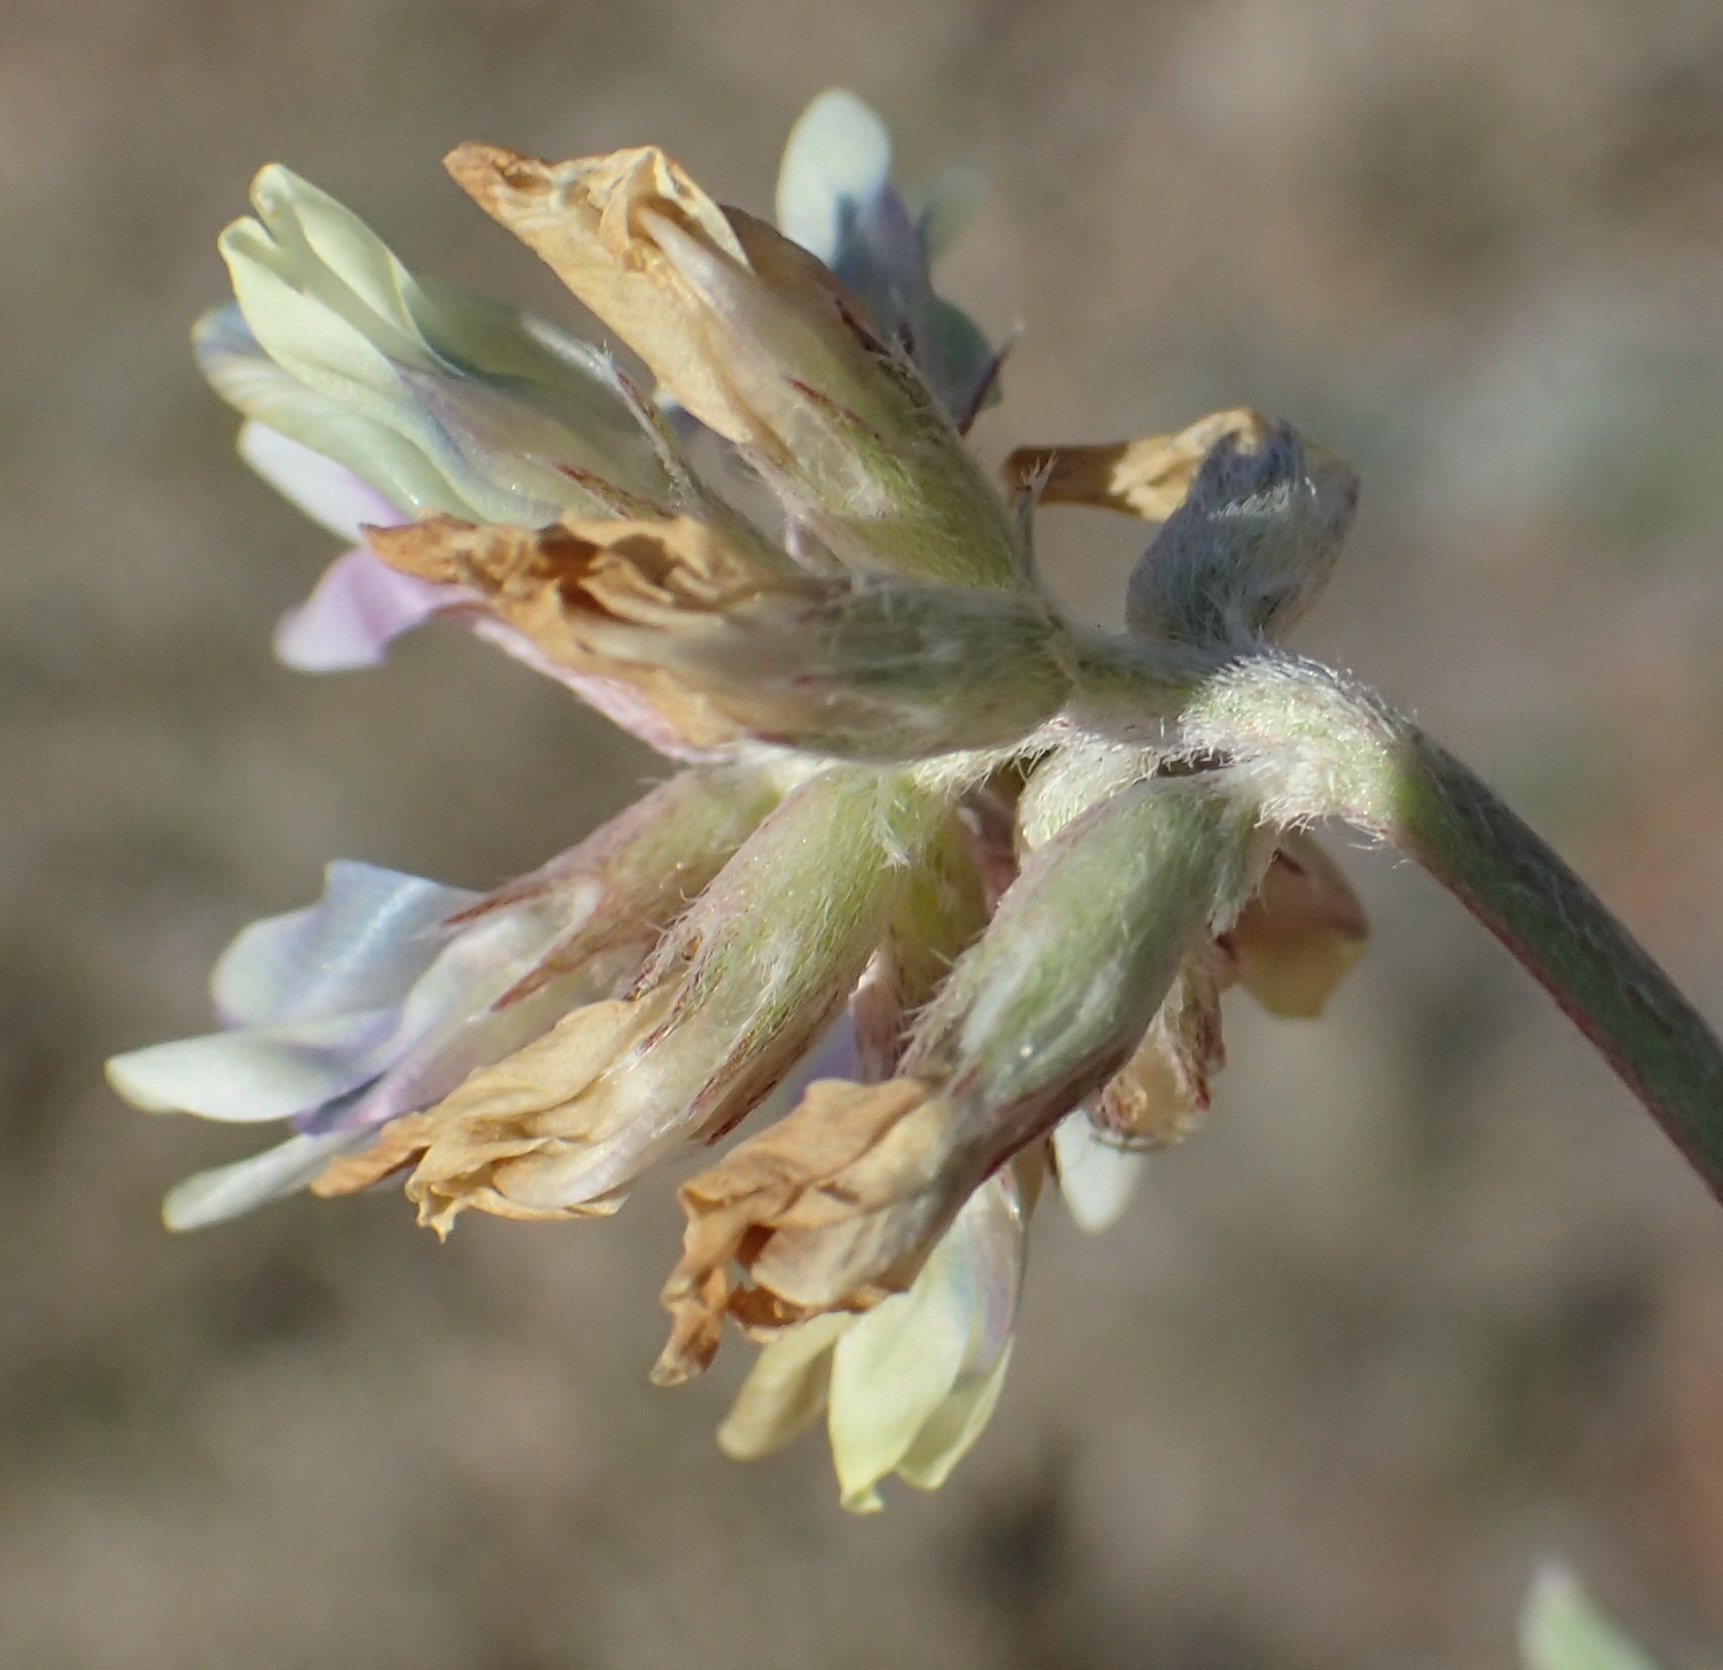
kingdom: Plantae
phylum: Tracheophyta
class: Magnoliopsida
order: Fabales
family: Fabaceae
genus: Astragalus
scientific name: Astragalus lotiflorus
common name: Lotus milk-vetch
